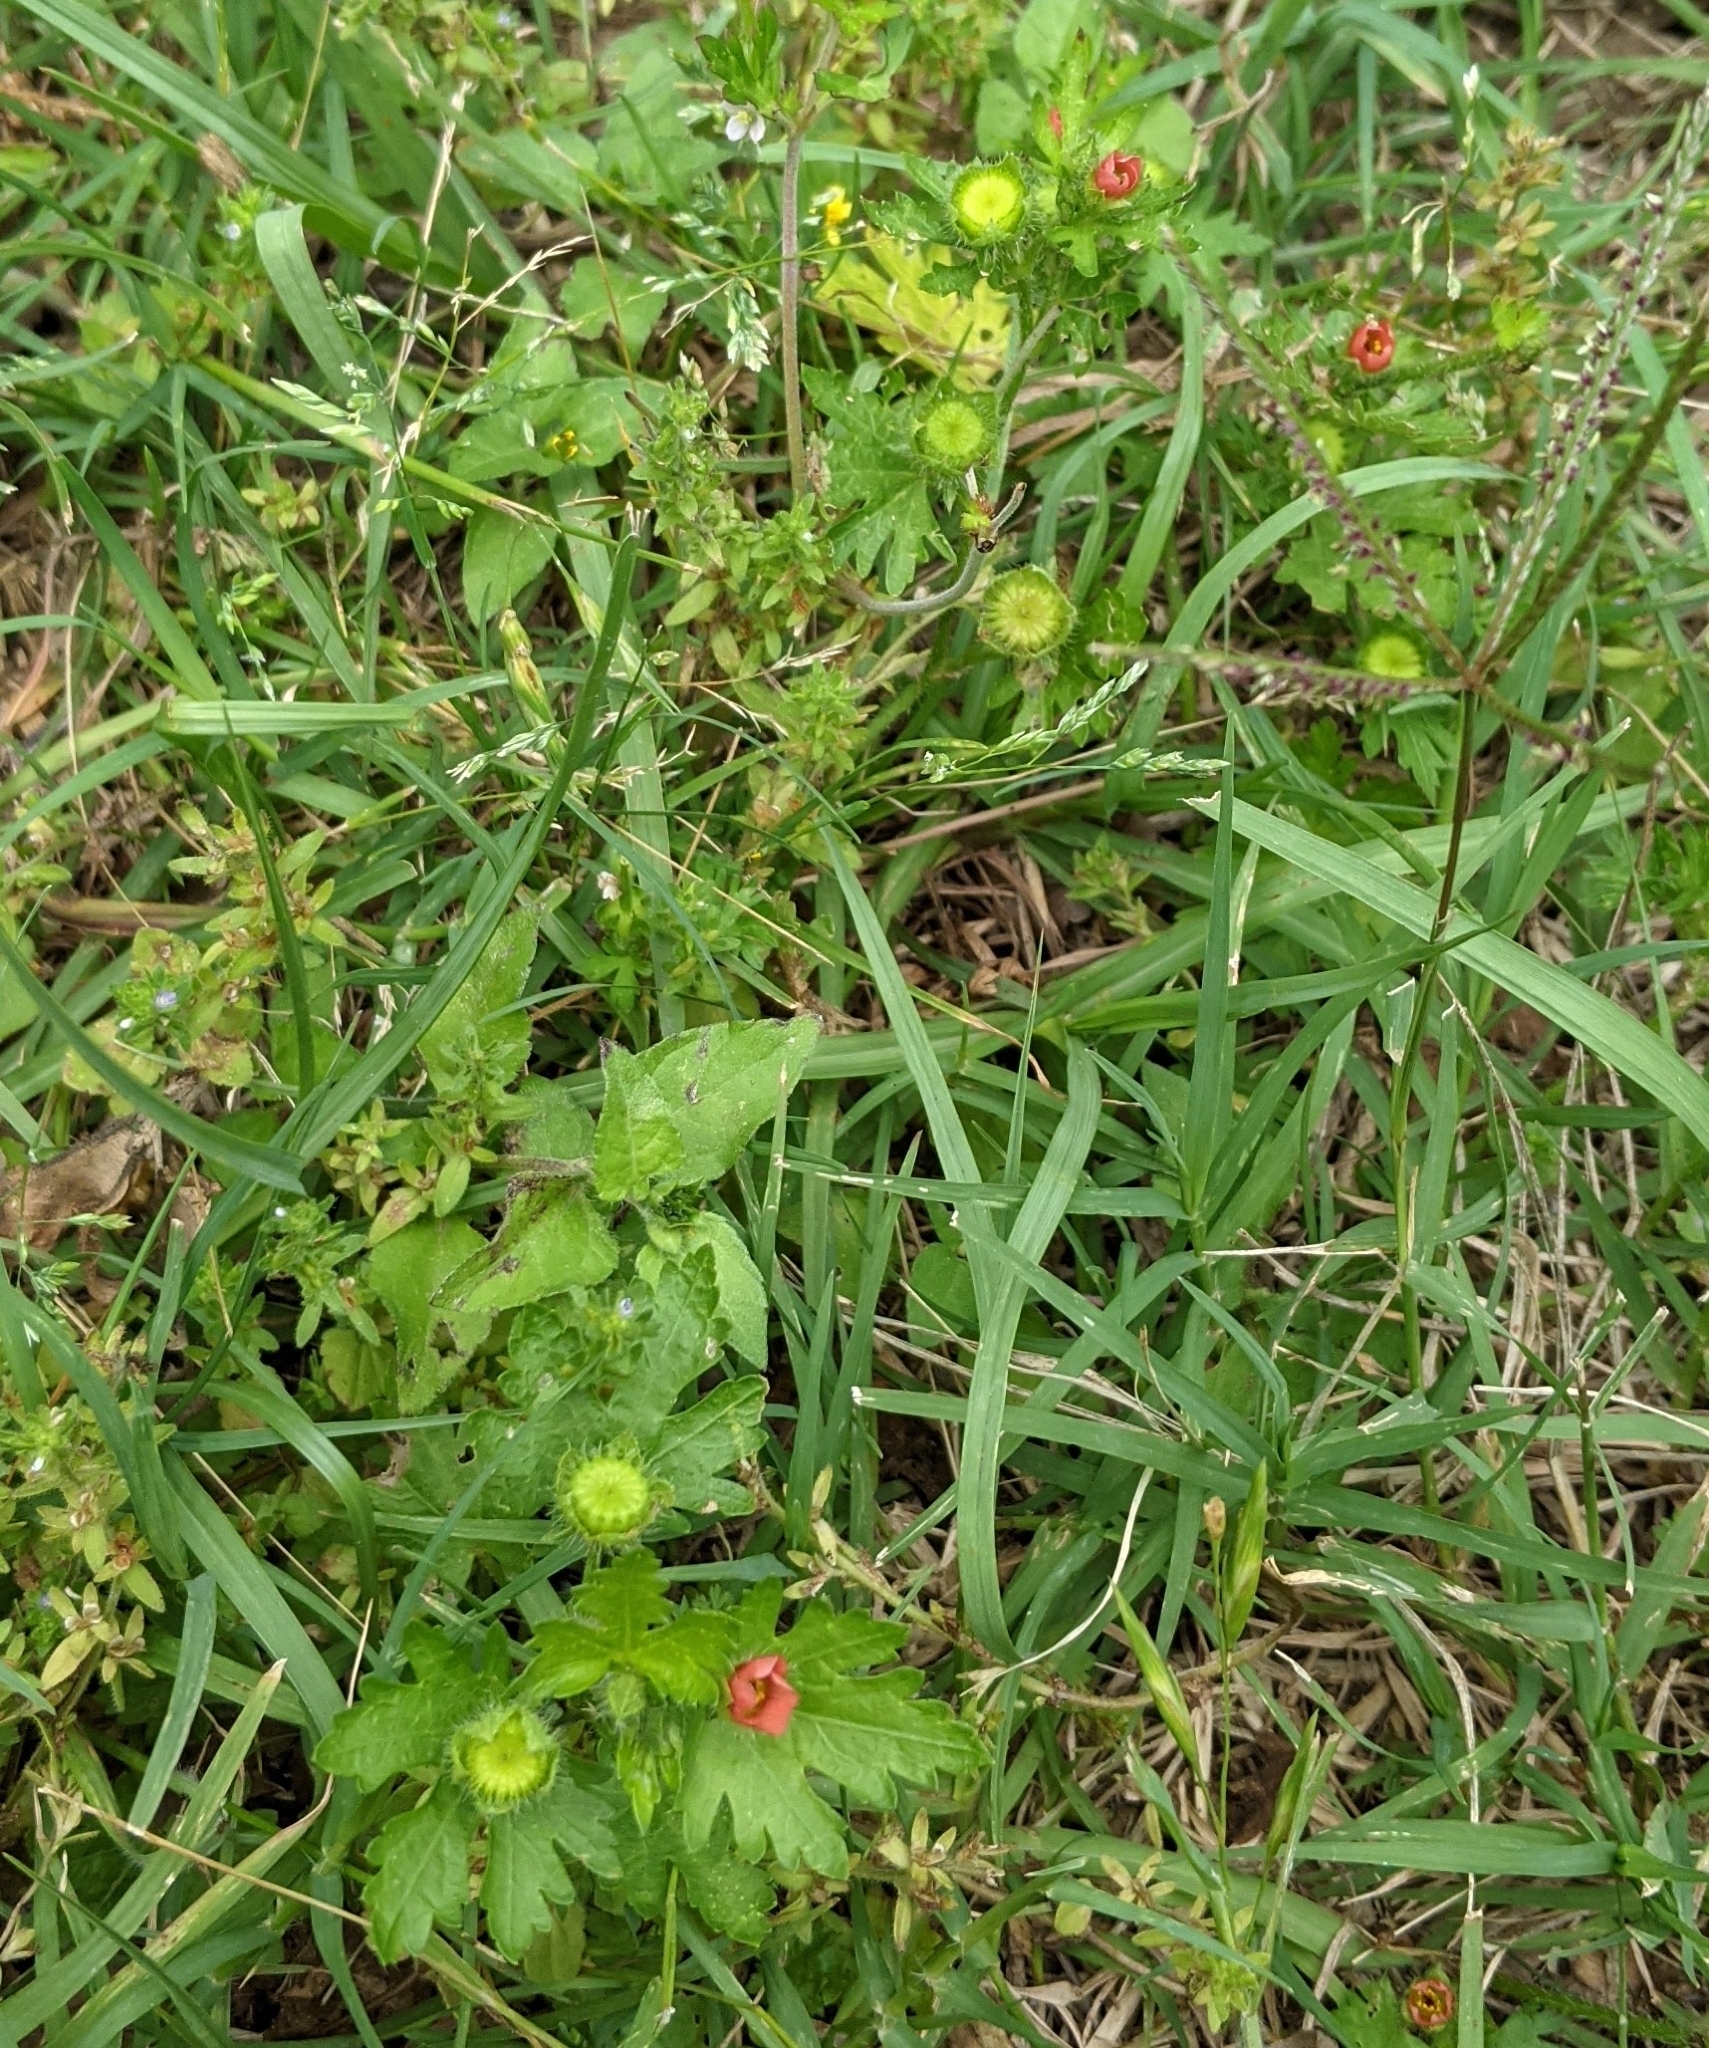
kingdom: Plantae
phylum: Tracheophyta
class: Magnoliopsida
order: Malvales
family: Malvaceae
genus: Modiola
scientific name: Modiola caroliniana
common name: Carolina bristlemallow
